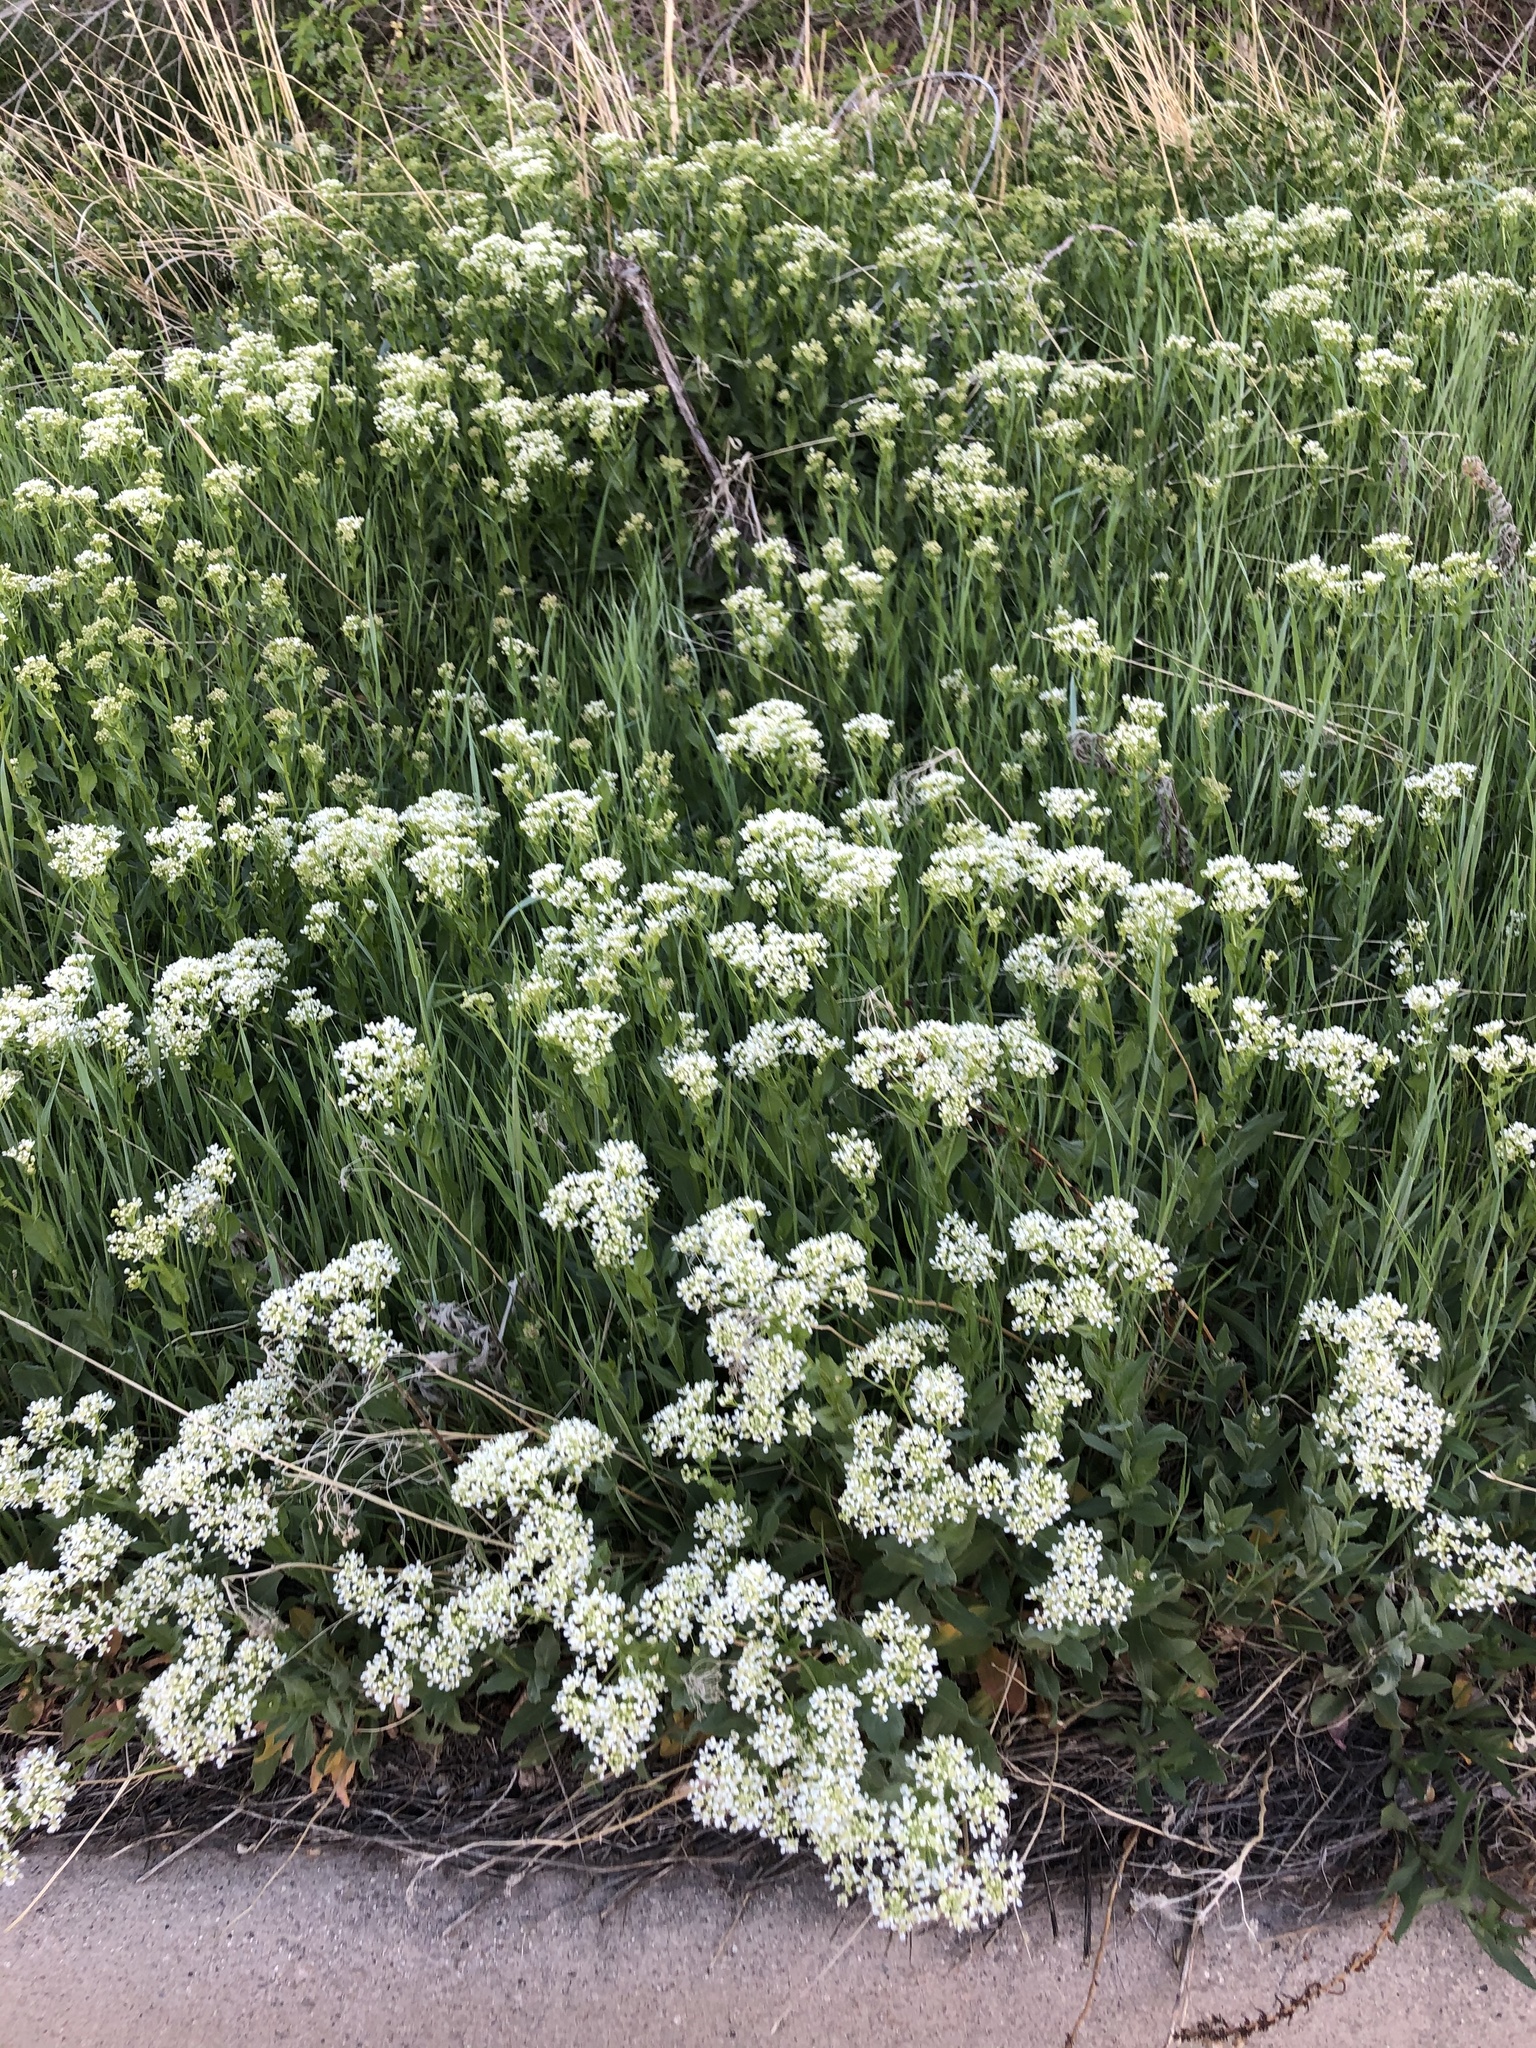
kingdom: Plantae
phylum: Tracheophyta
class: Magnoliopsida
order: Brassicales
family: Brassicaceae
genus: Lepidium
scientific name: Lepidium draba
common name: Hoary cress
